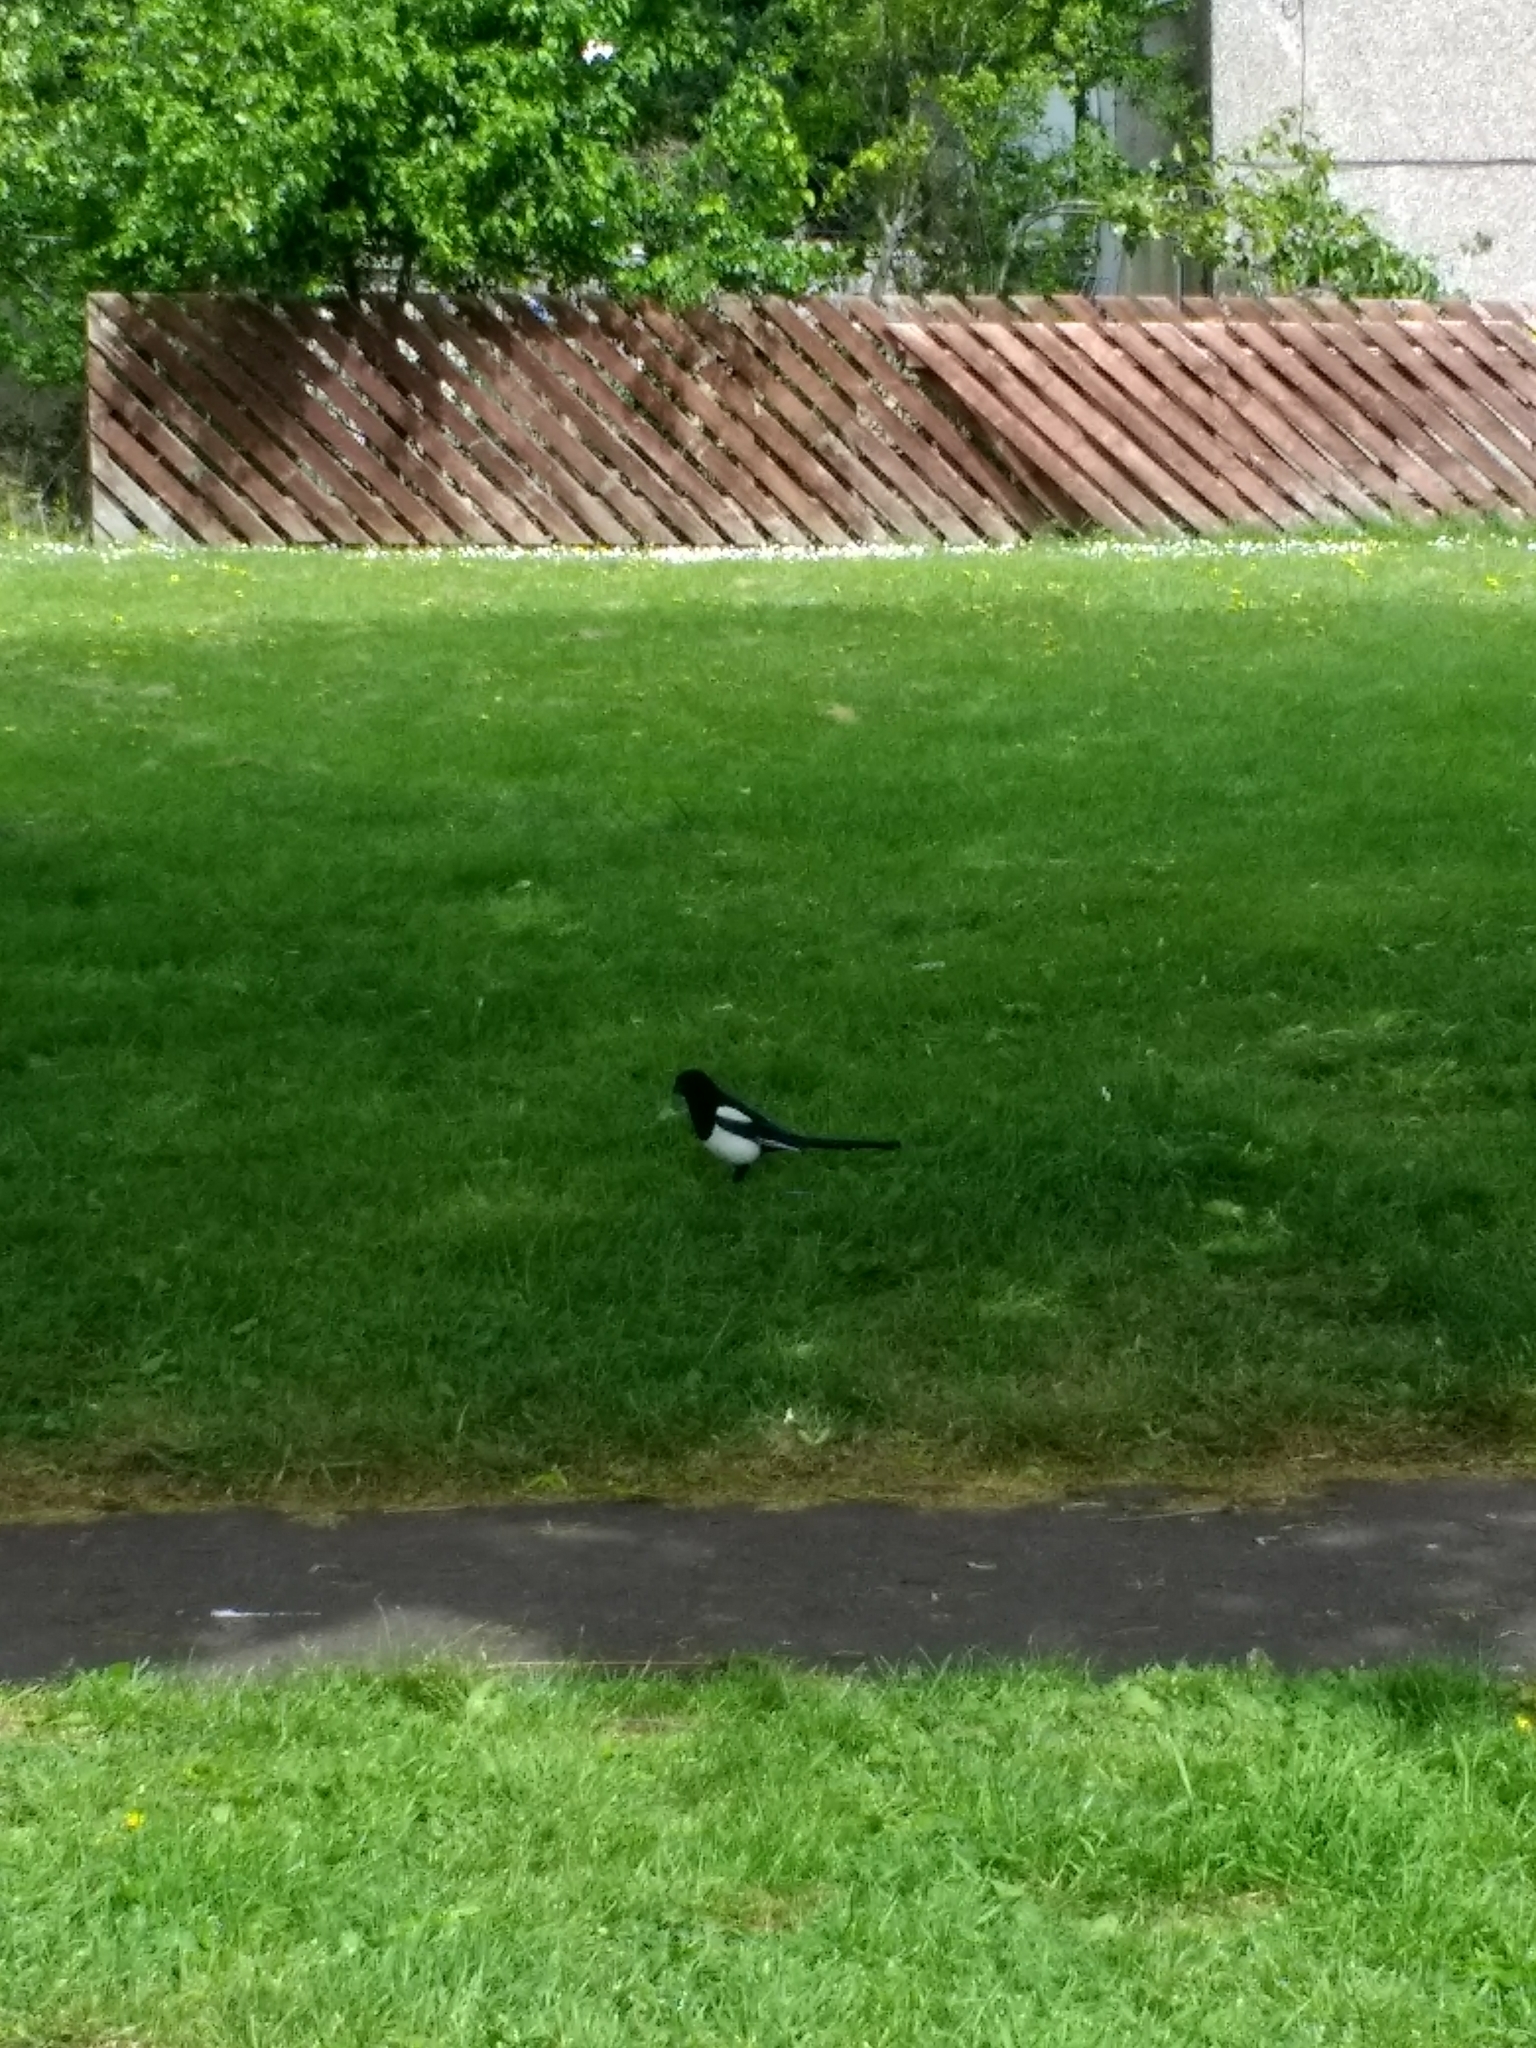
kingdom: Animalia
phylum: Chordata
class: Aves
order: Passeriformes
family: Corvidae
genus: Pica
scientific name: Pica pica
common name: Eurasian magpie
